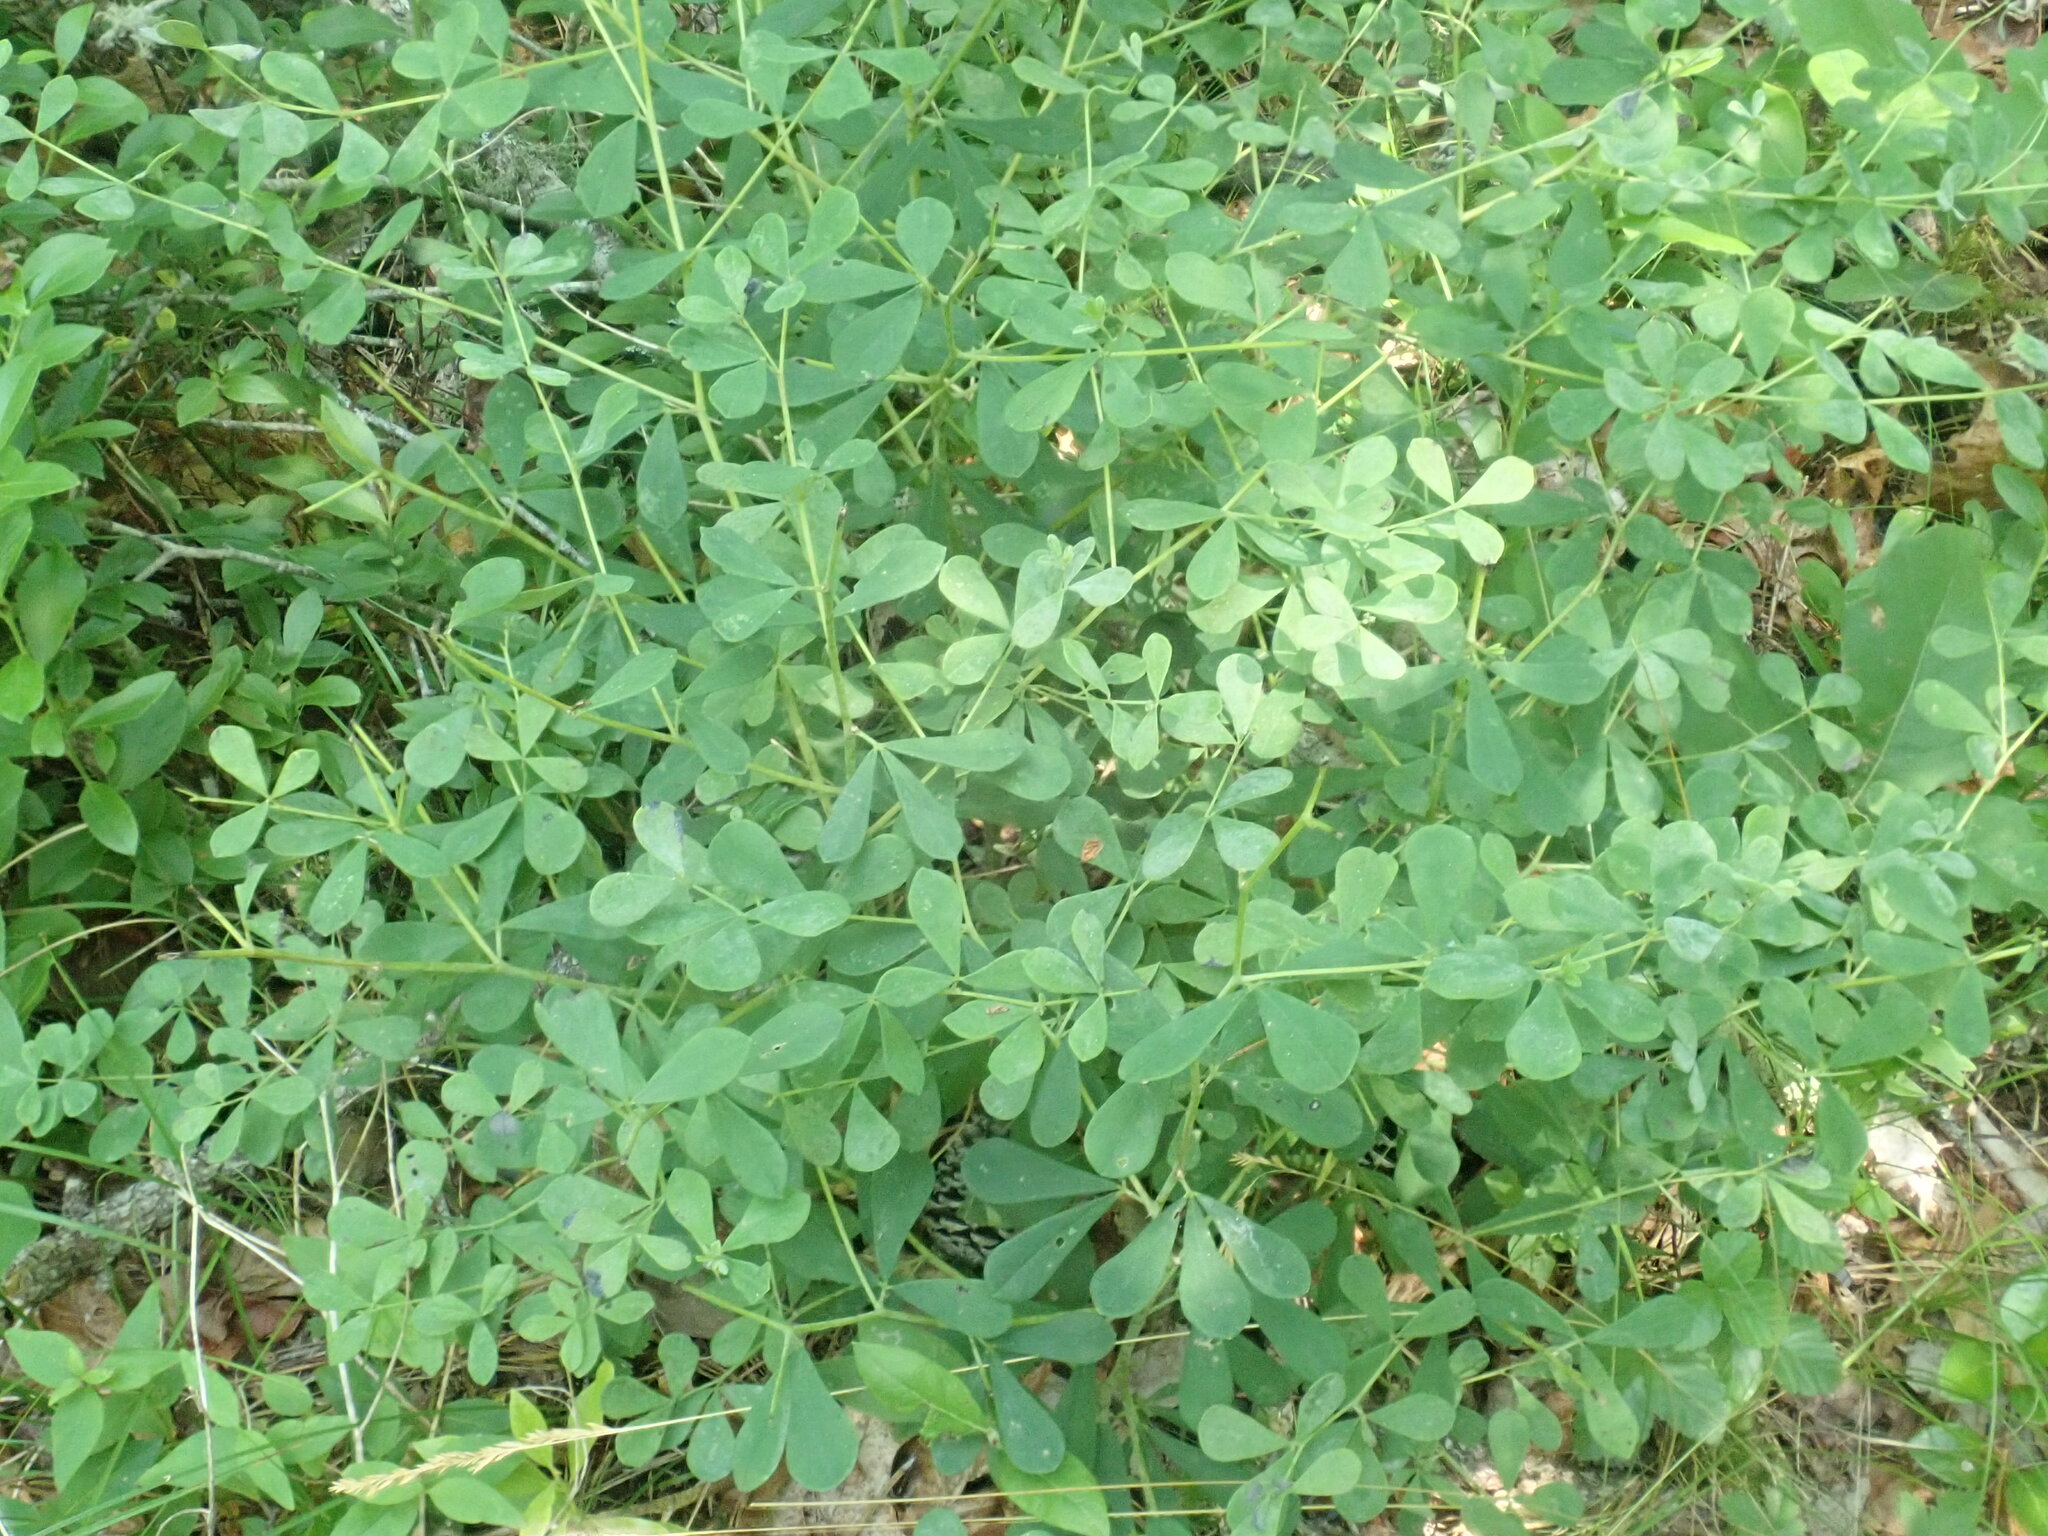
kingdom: Plantae
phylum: Tracheophyta
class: Magnoliopsida
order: Fabales
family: Fabaceae
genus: Baptisia
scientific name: Baptisia tinctoria
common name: Wild indigo
